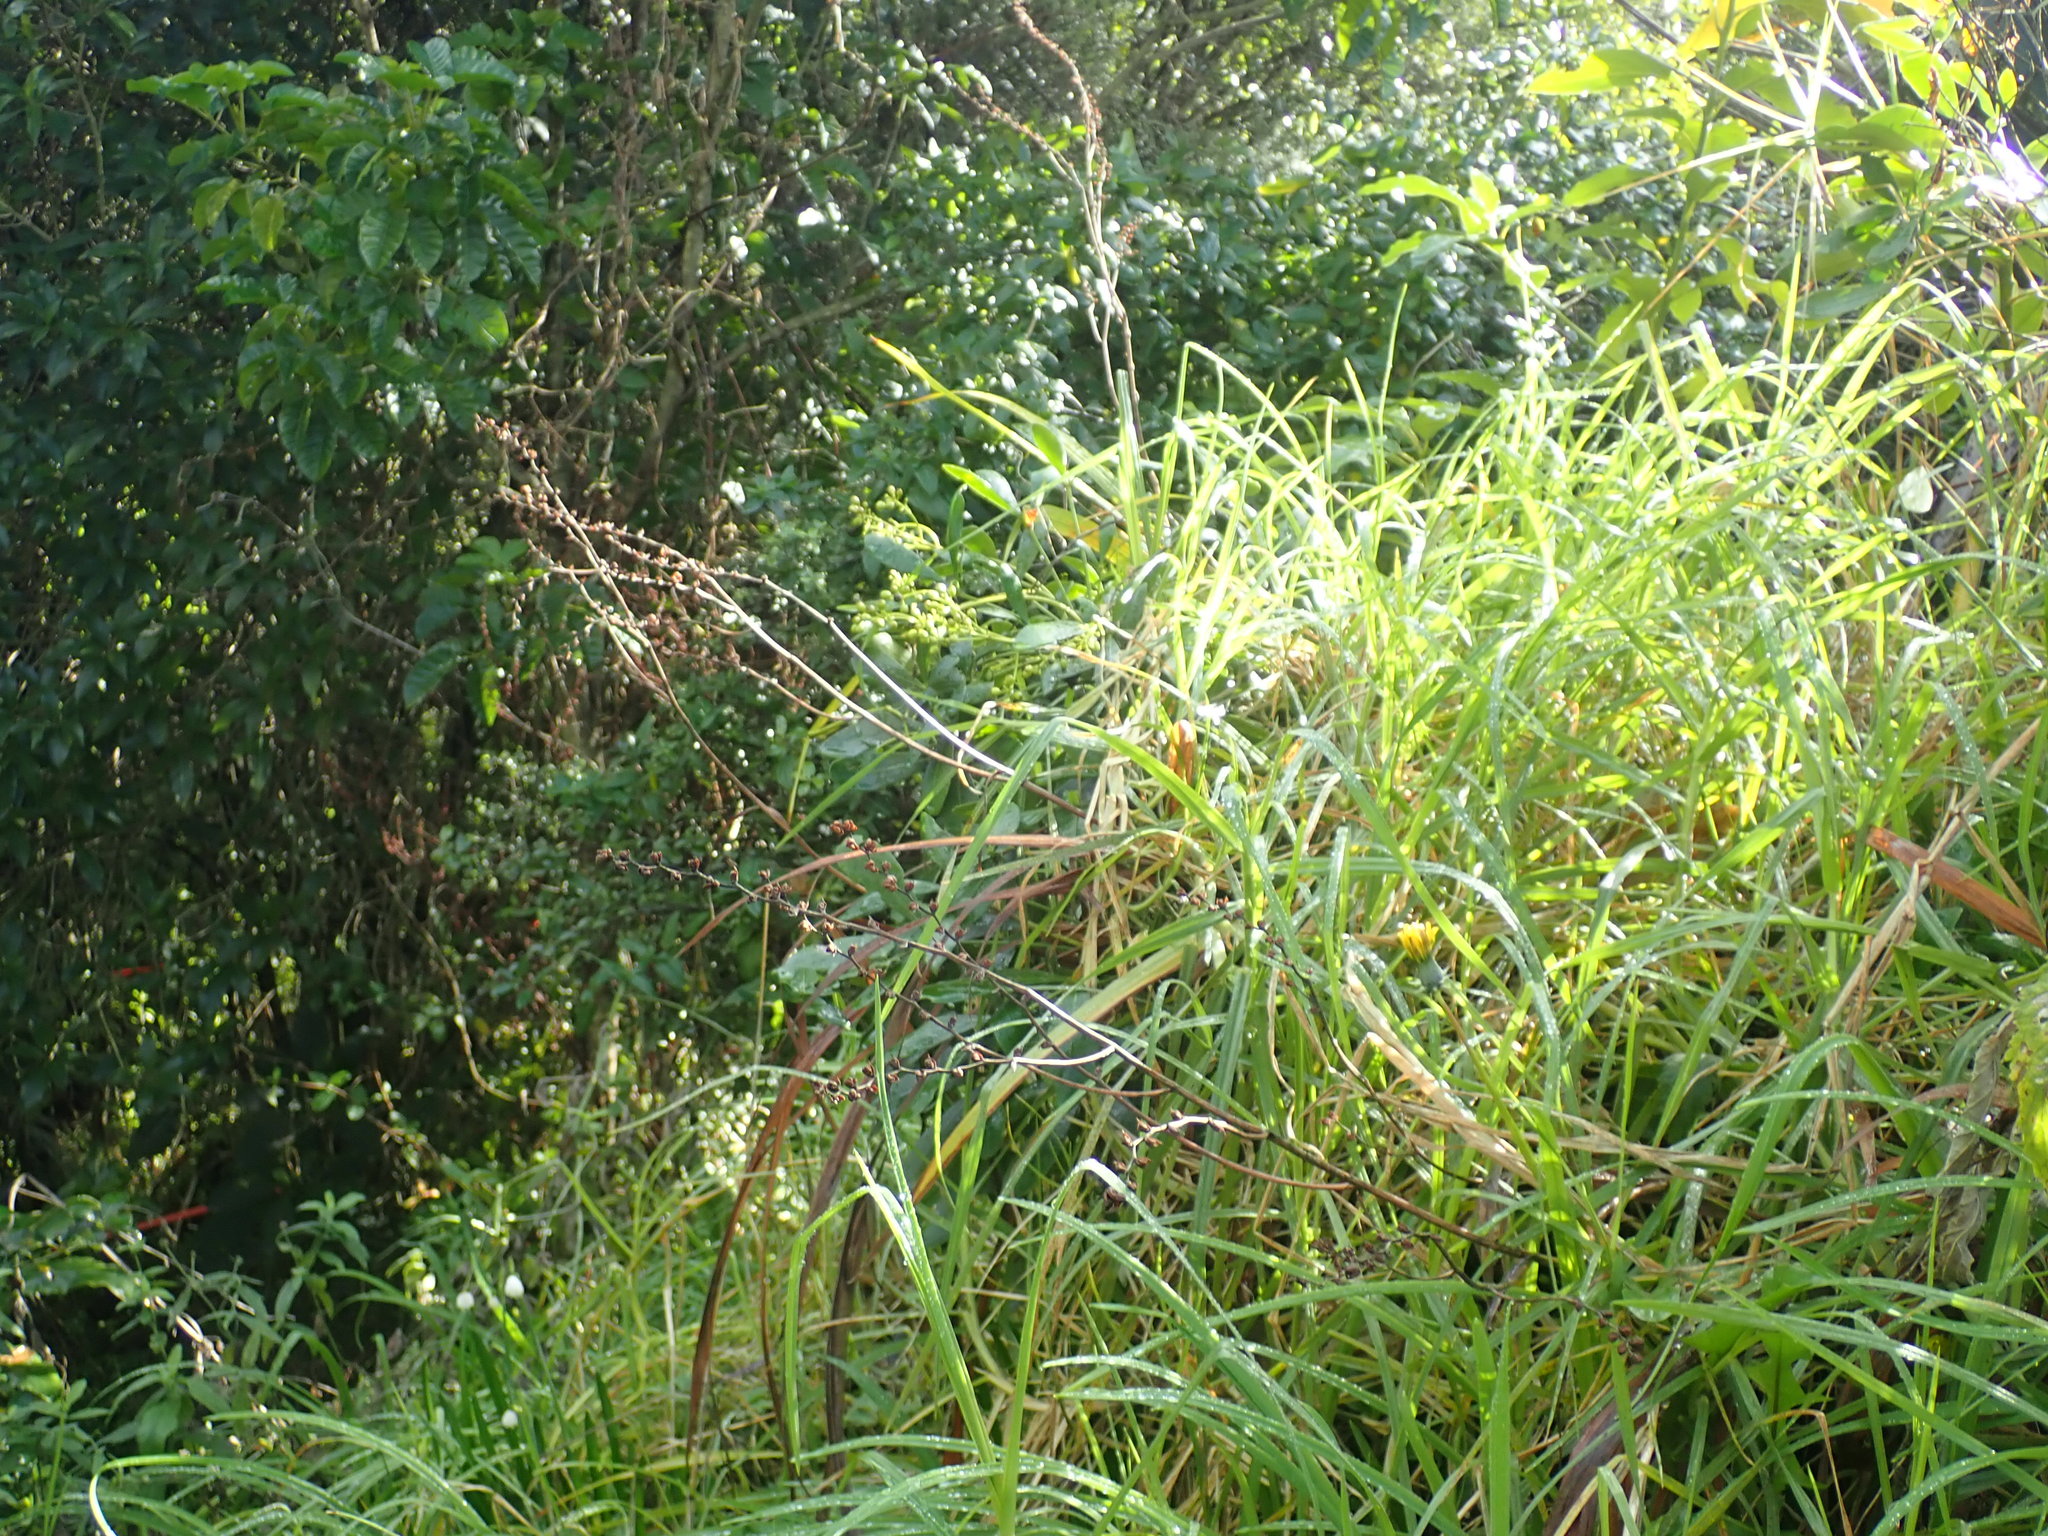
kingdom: Plantae
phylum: Tracheophyta
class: Liliopsida
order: Asparagales
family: Iridaceae
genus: Crocosmia
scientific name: Crocosmia crocosmiiflora
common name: Montbretia
